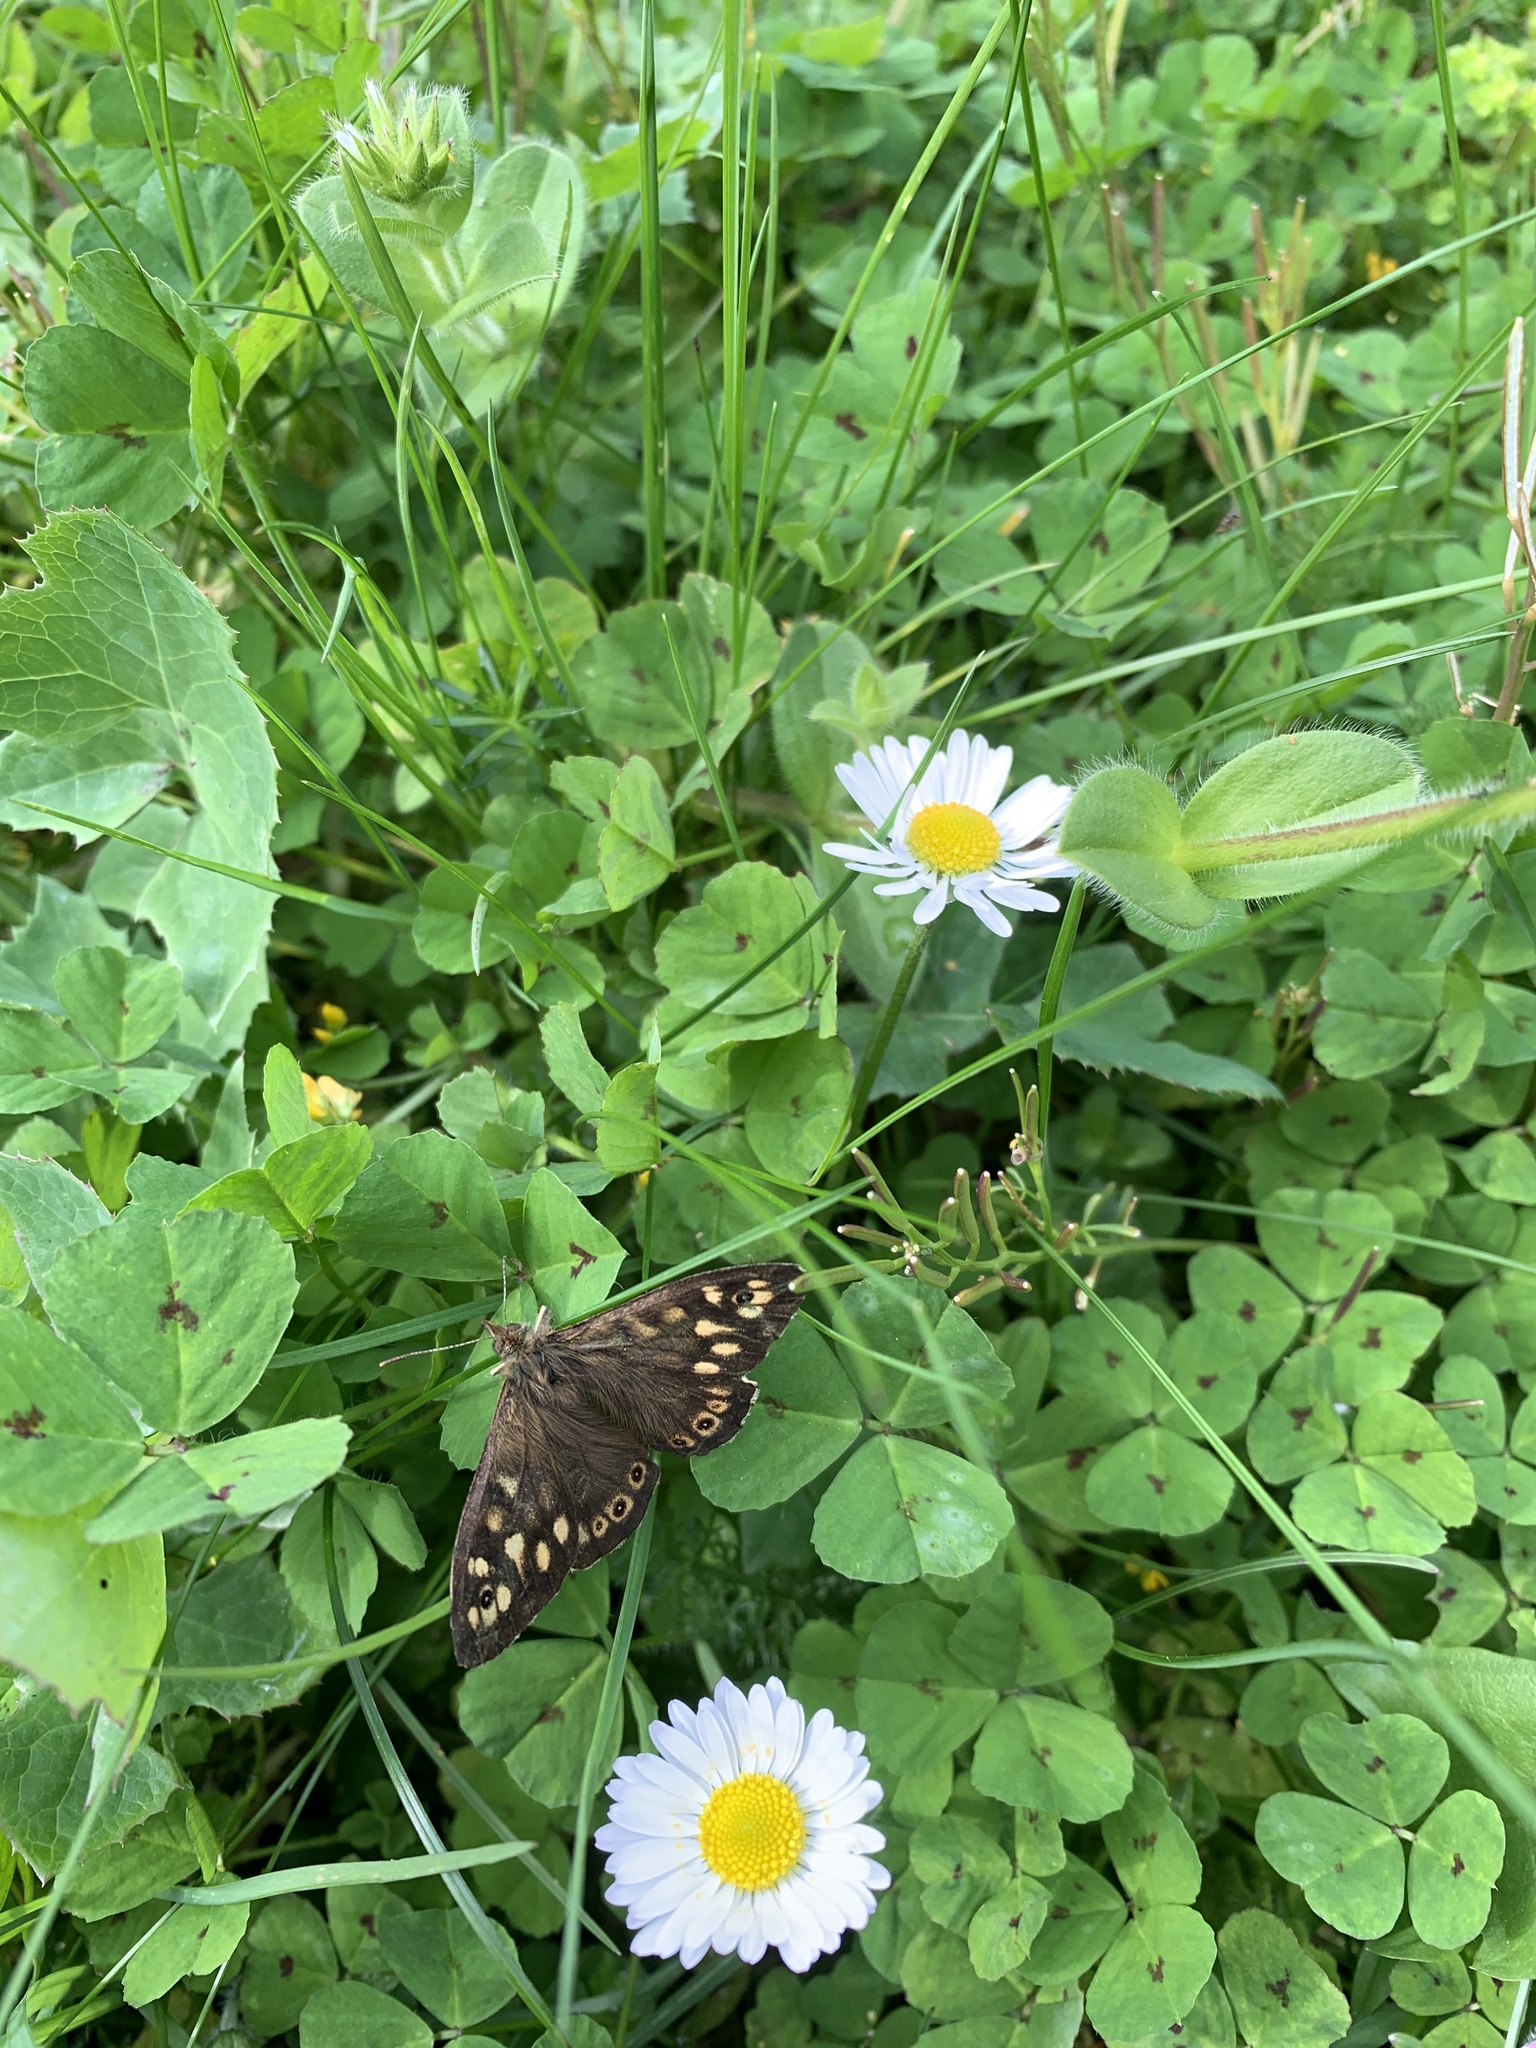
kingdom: Animalia
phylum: Arthropoda
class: Insecta
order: Lepidoptera
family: Nymphalidae
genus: Pararge
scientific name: Pararge aegeria
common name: Speckled wood
